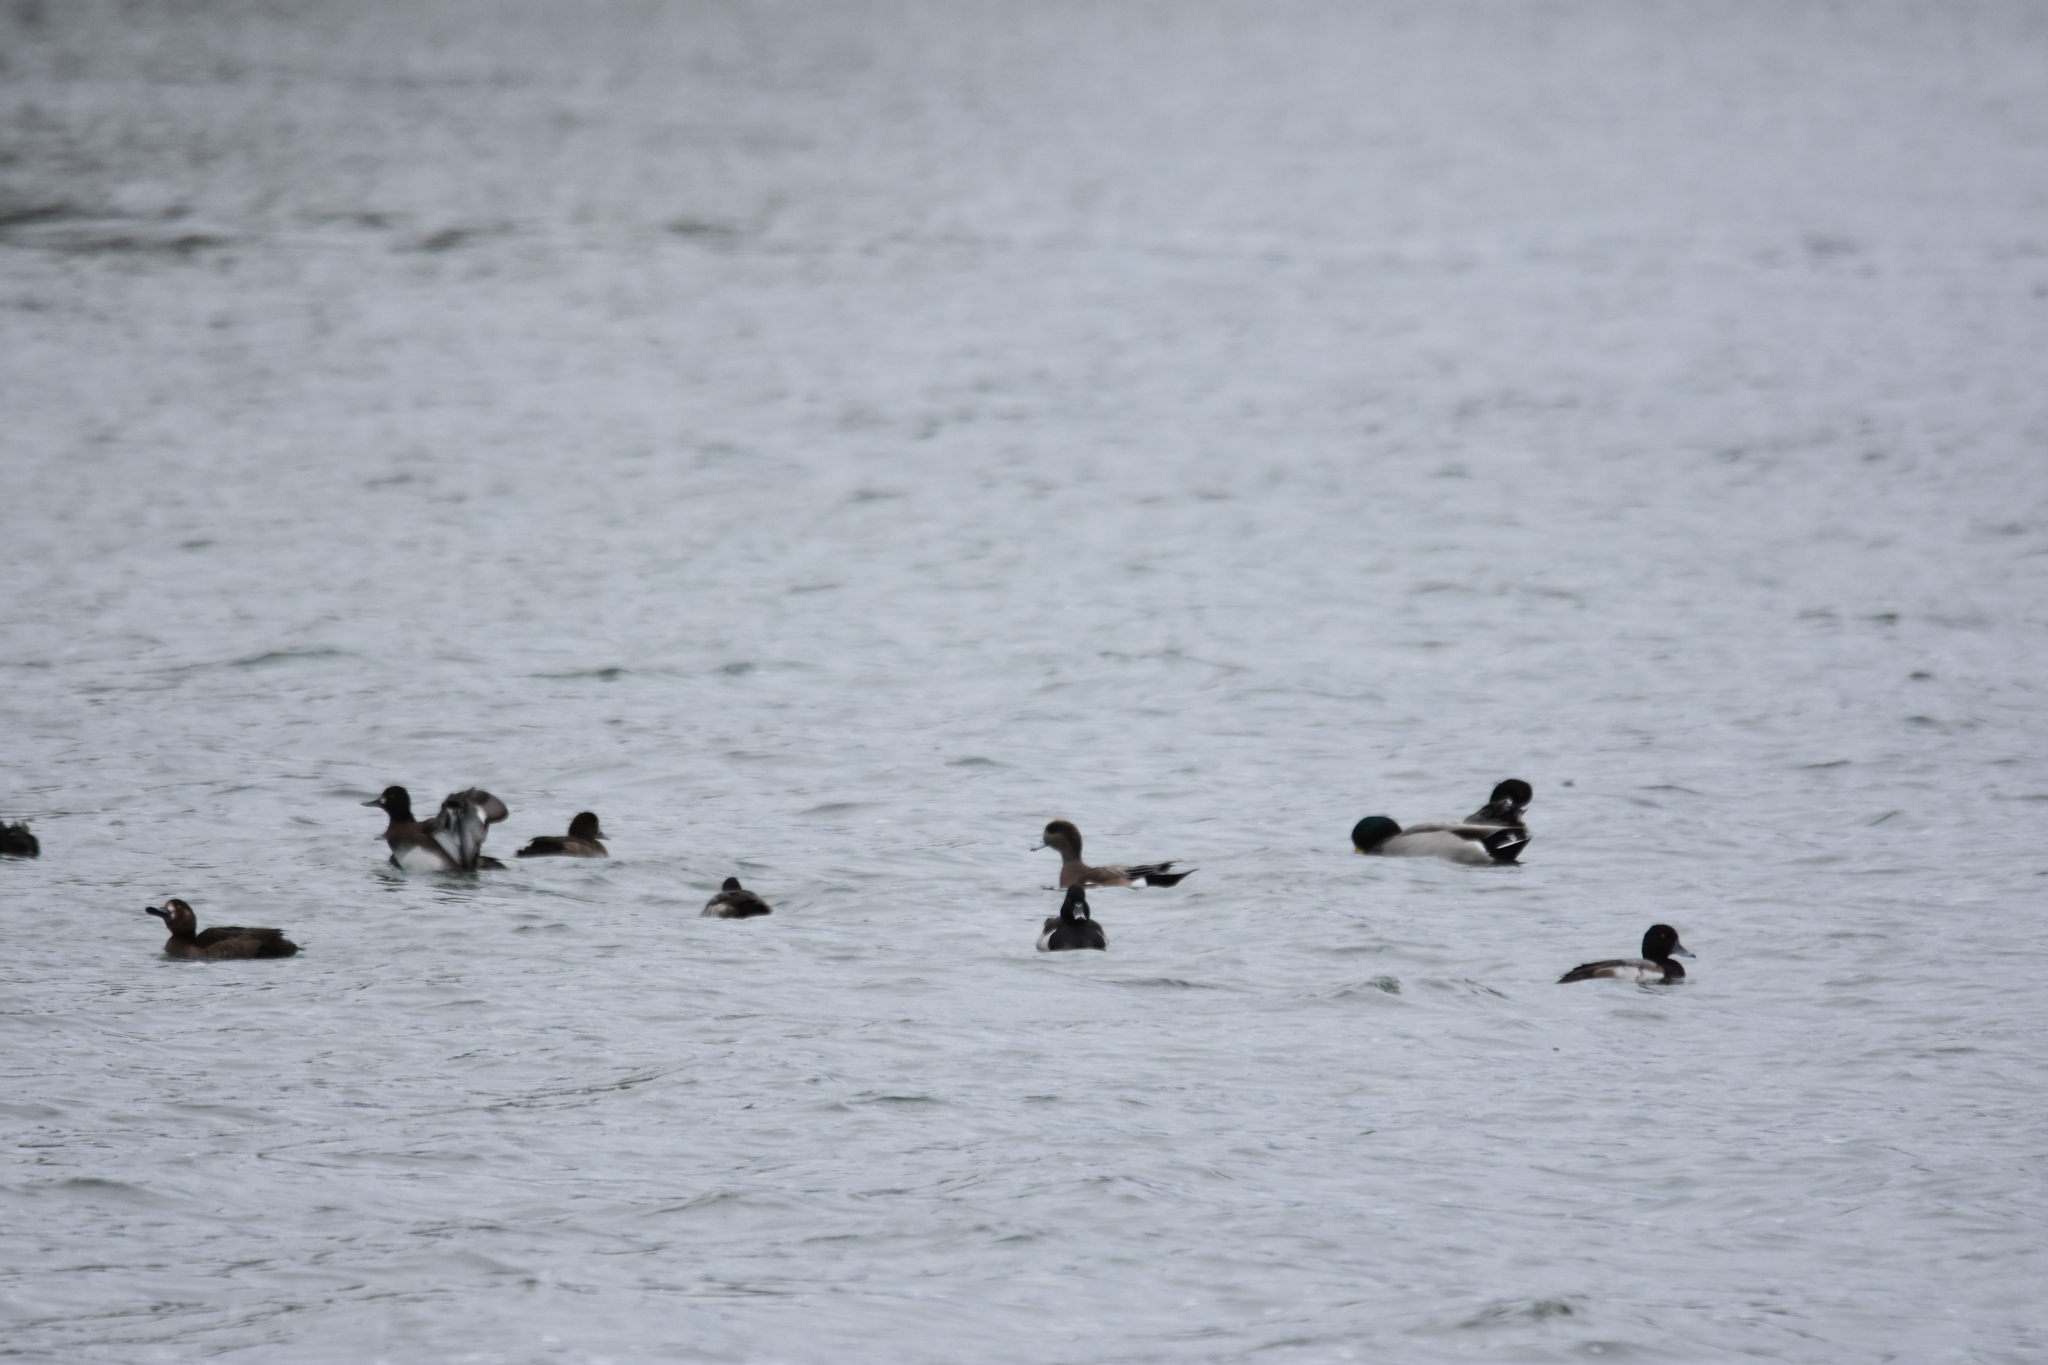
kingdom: Animalia
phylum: Chordata
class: Aves
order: Anseriformes
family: Anatidae
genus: Mareca
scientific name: Mareca americana
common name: American wigeon
